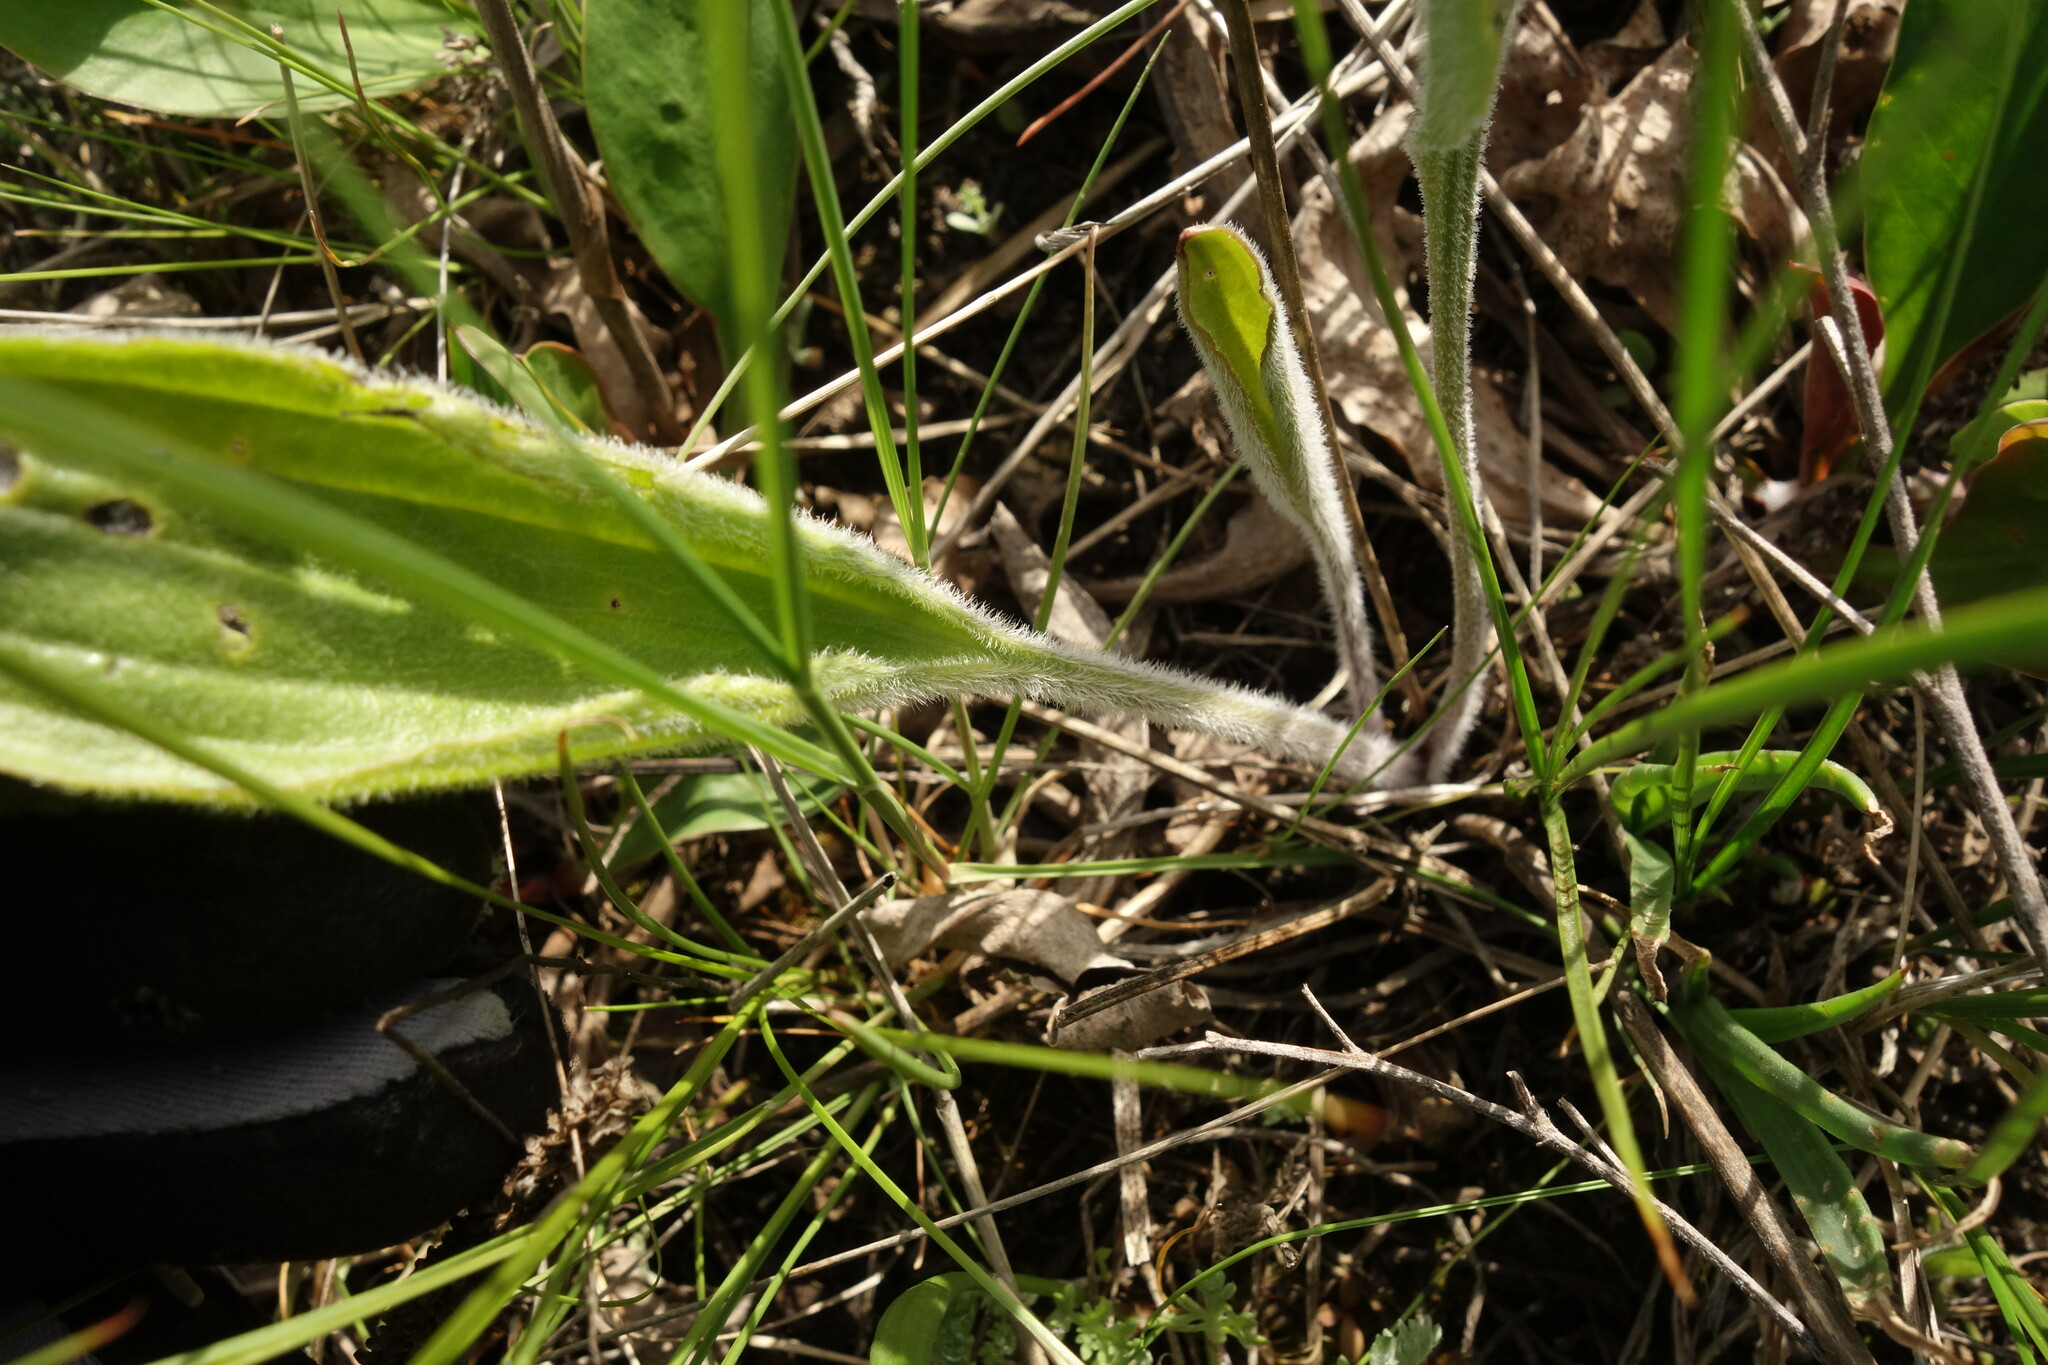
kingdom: Plantae
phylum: Tracheophyta
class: Magnoliopsida
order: Lamiales
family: Plantaginaceae
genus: Plantago
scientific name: Plantago urvillei
